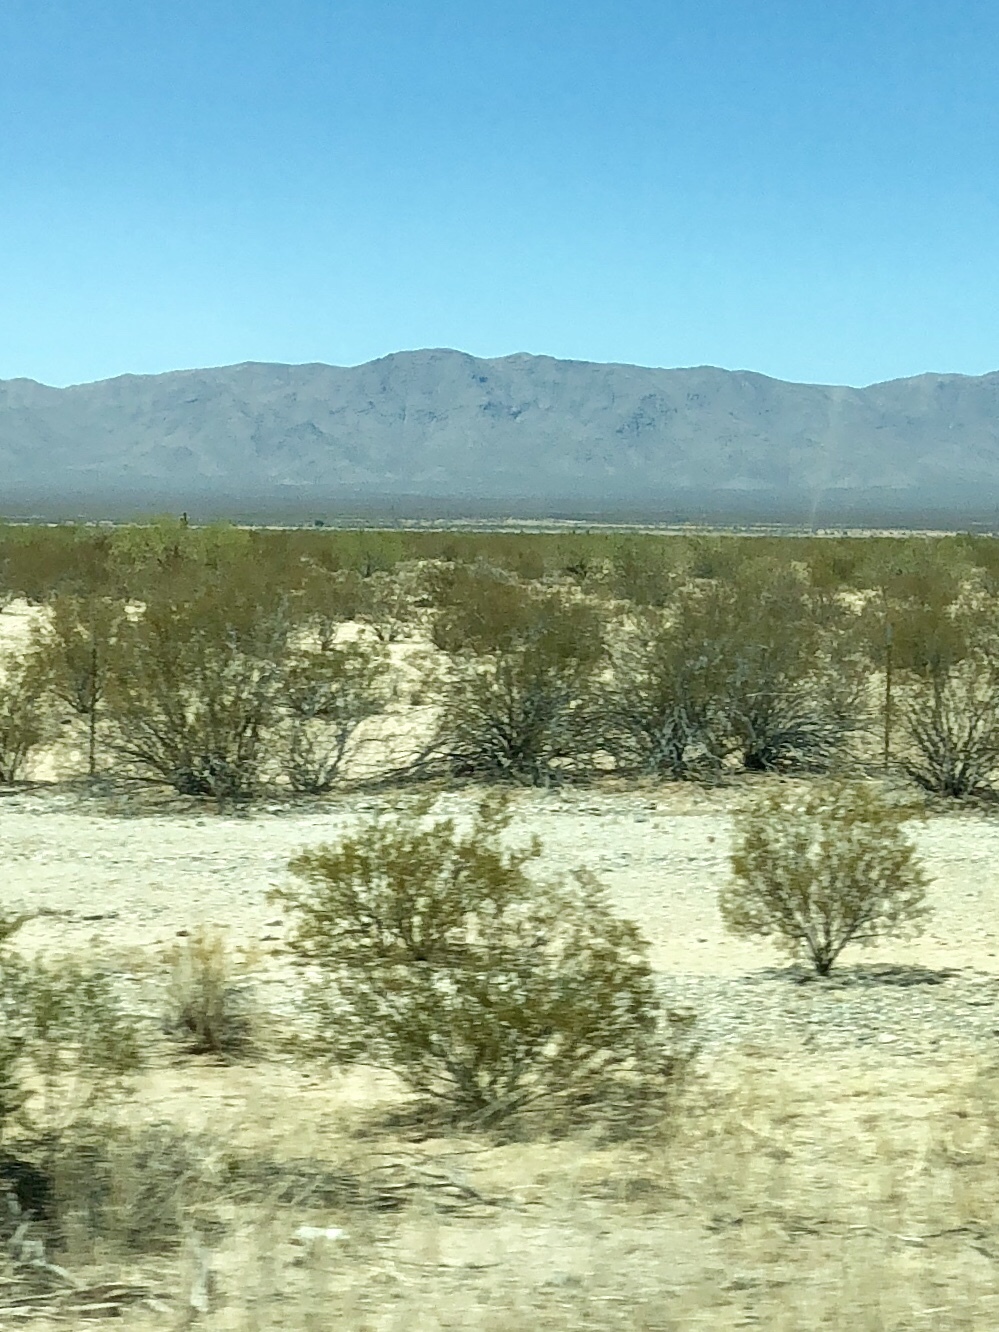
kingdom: Plantae
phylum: Tracheophyta
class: Magnoliopsida
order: Zygophyllales
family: Zygophyllaceae
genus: Larrea
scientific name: Larrea tridentata
